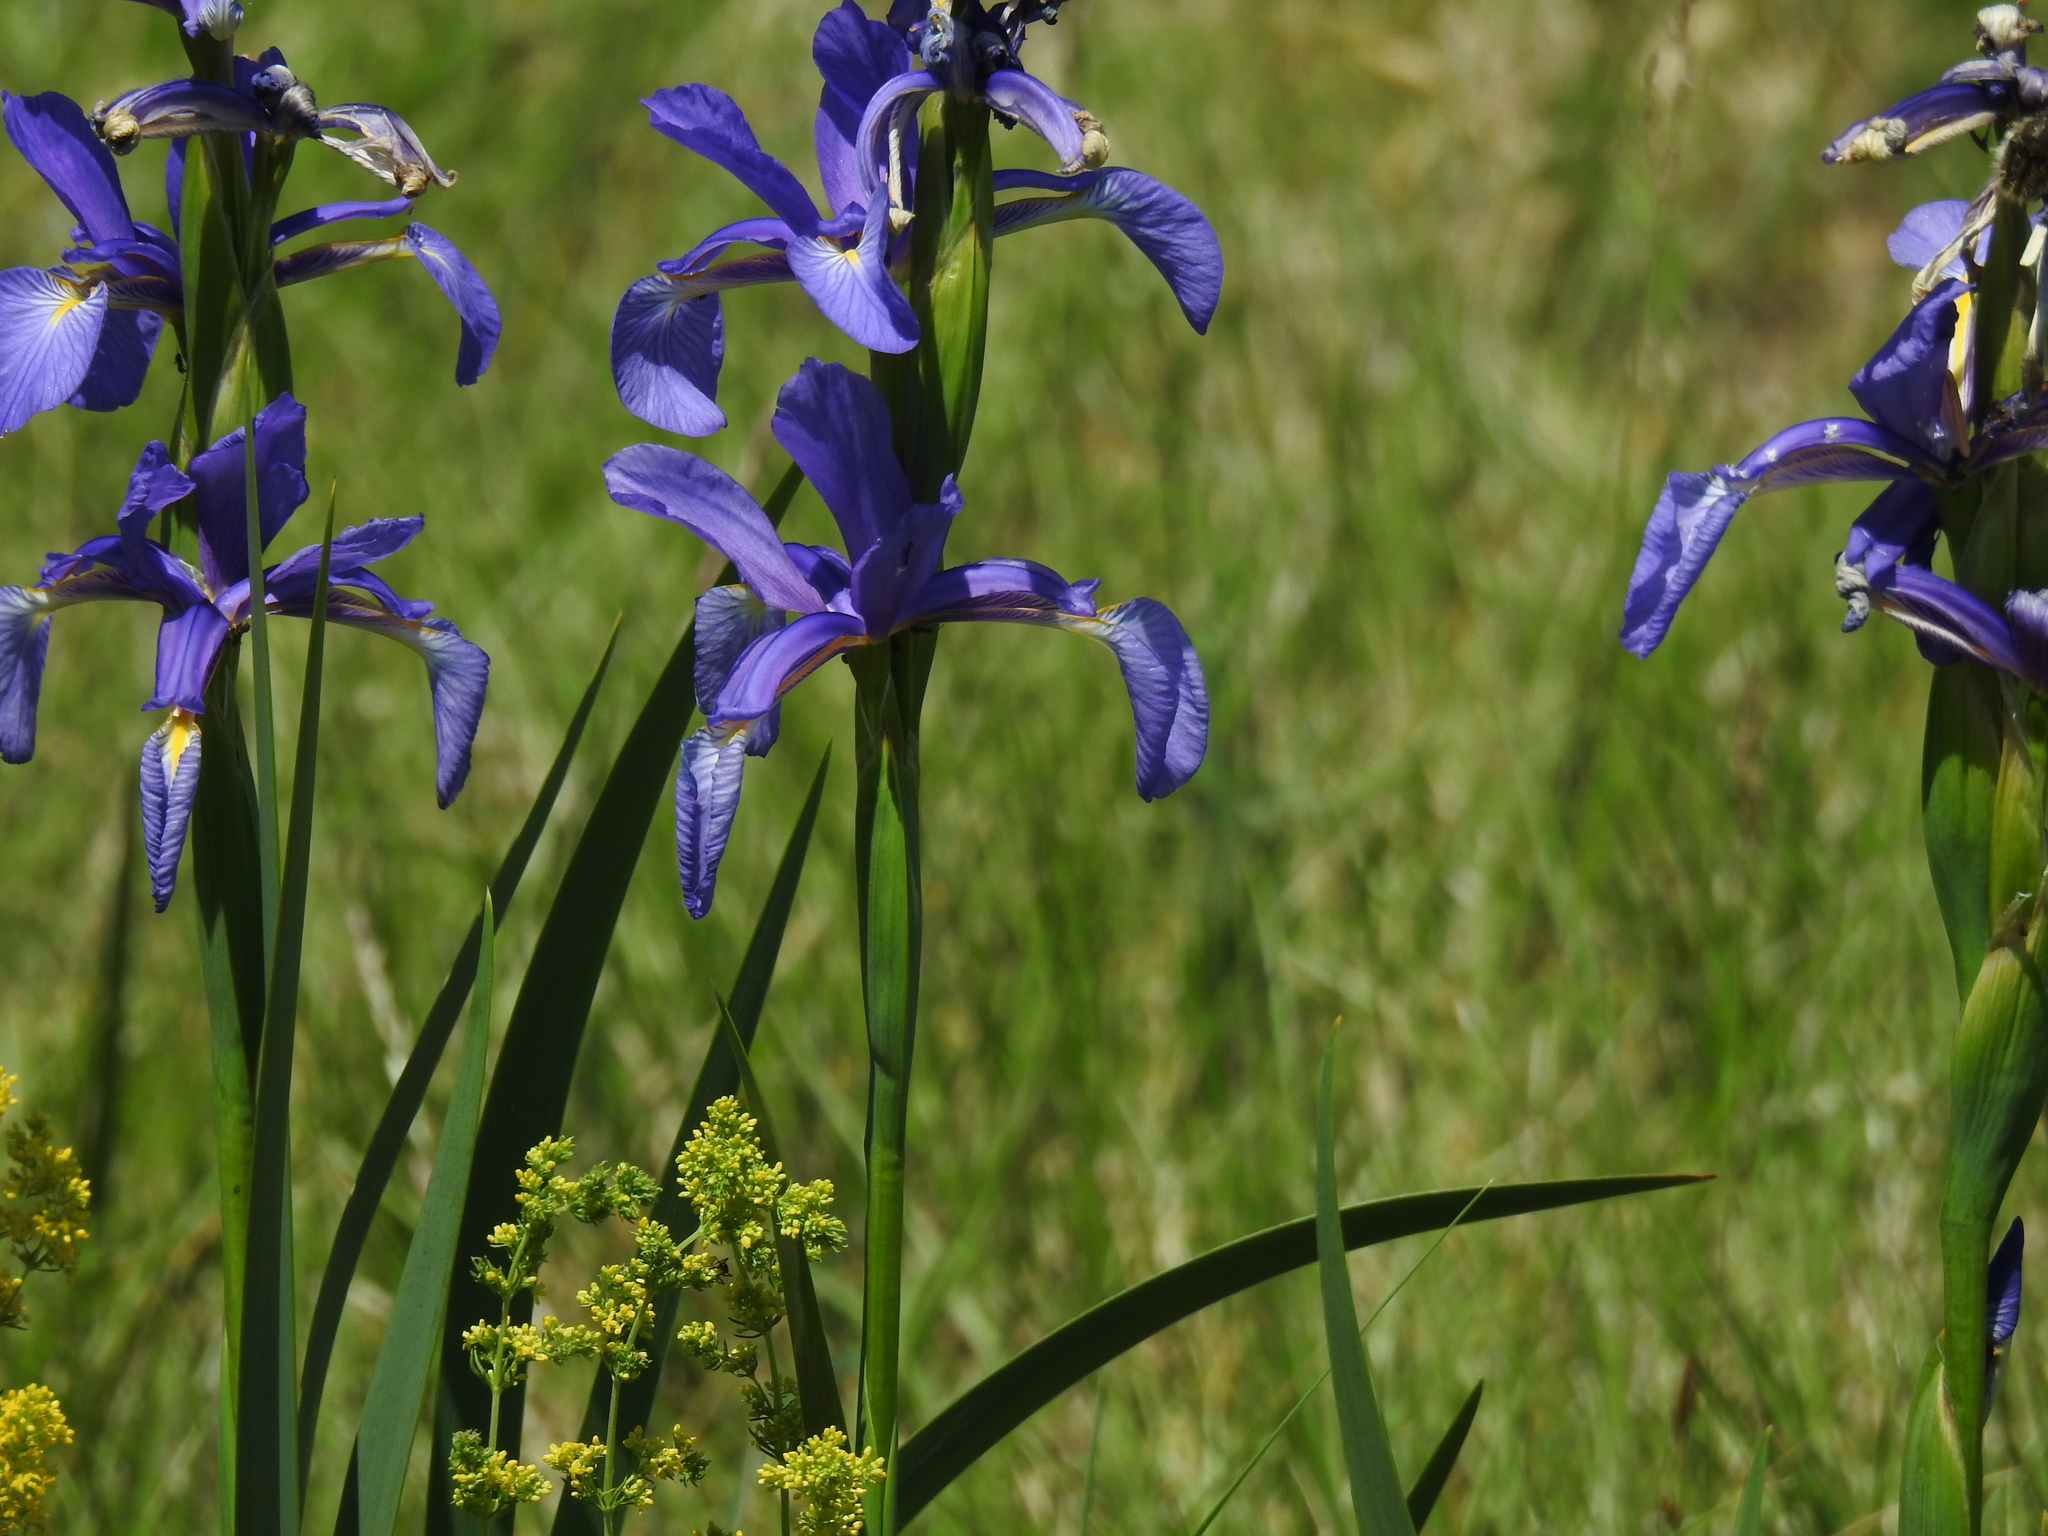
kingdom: Plantae
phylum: Tracheophyta
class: Liliopsida
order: Asparagales
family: Iridaceae
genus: Iris
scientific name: Iris reichenbachiana
